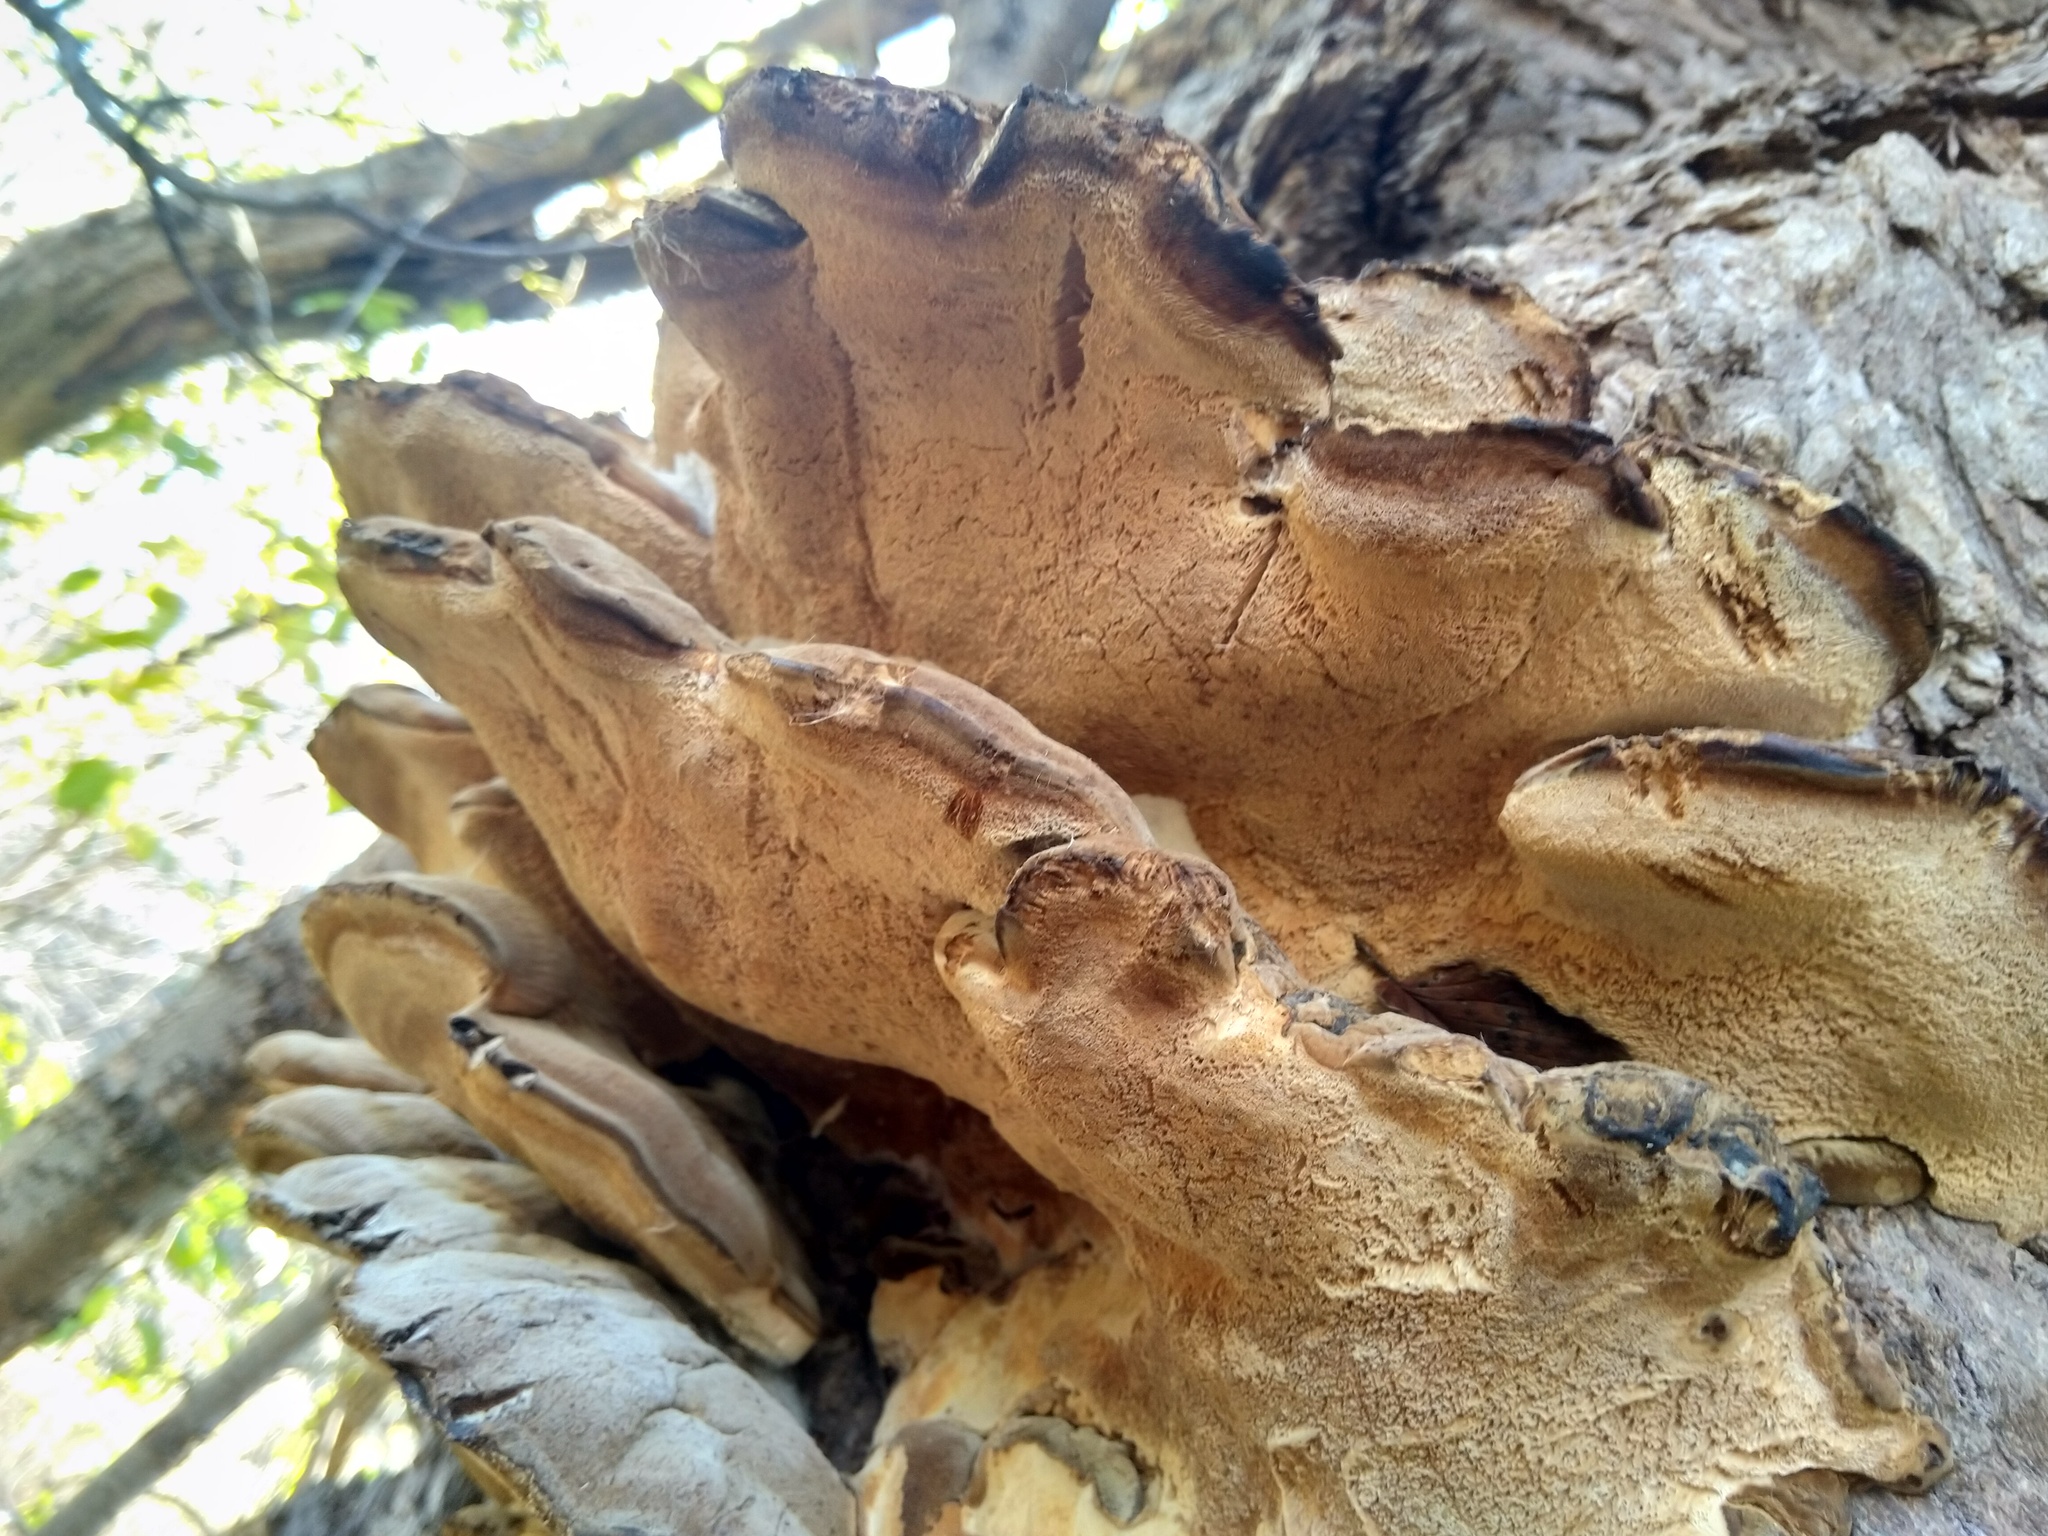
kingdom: Fungi
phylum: Basidiomycota
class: Agaricomycetes
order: Polyporales
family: Ischnodermataceae
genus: Ischnoderma
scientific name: Ischnoderma resinosum
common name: Resinous polypore
